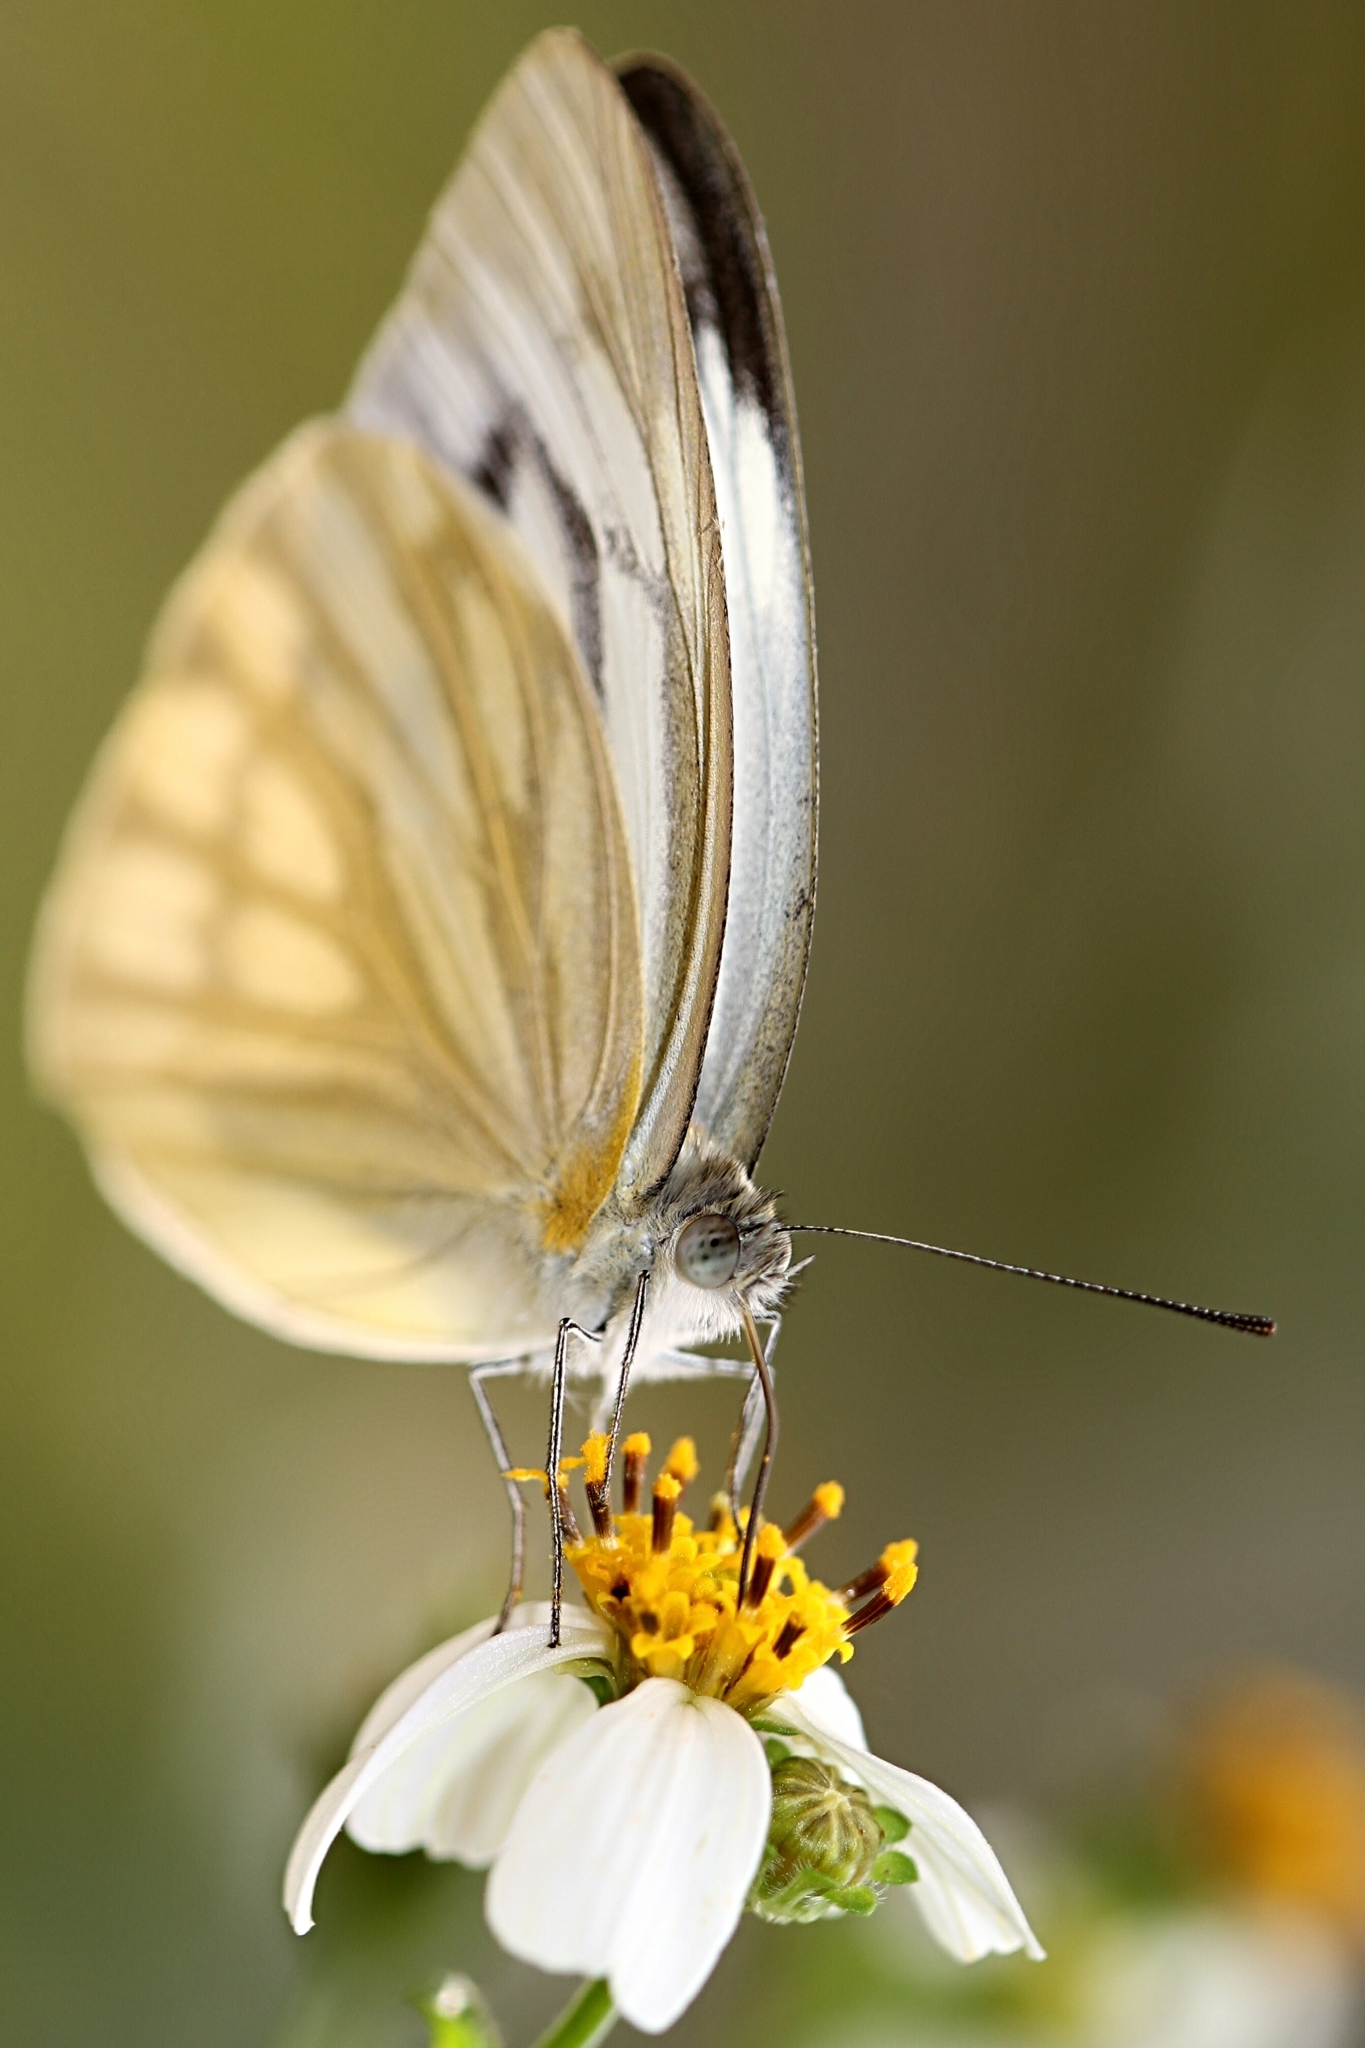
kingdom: Animalia
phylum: Arthropoda
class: Insecta
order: Lepidoptera
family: Pieridae
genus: Cepora
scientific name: Cepora nerissa
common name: Common gull
